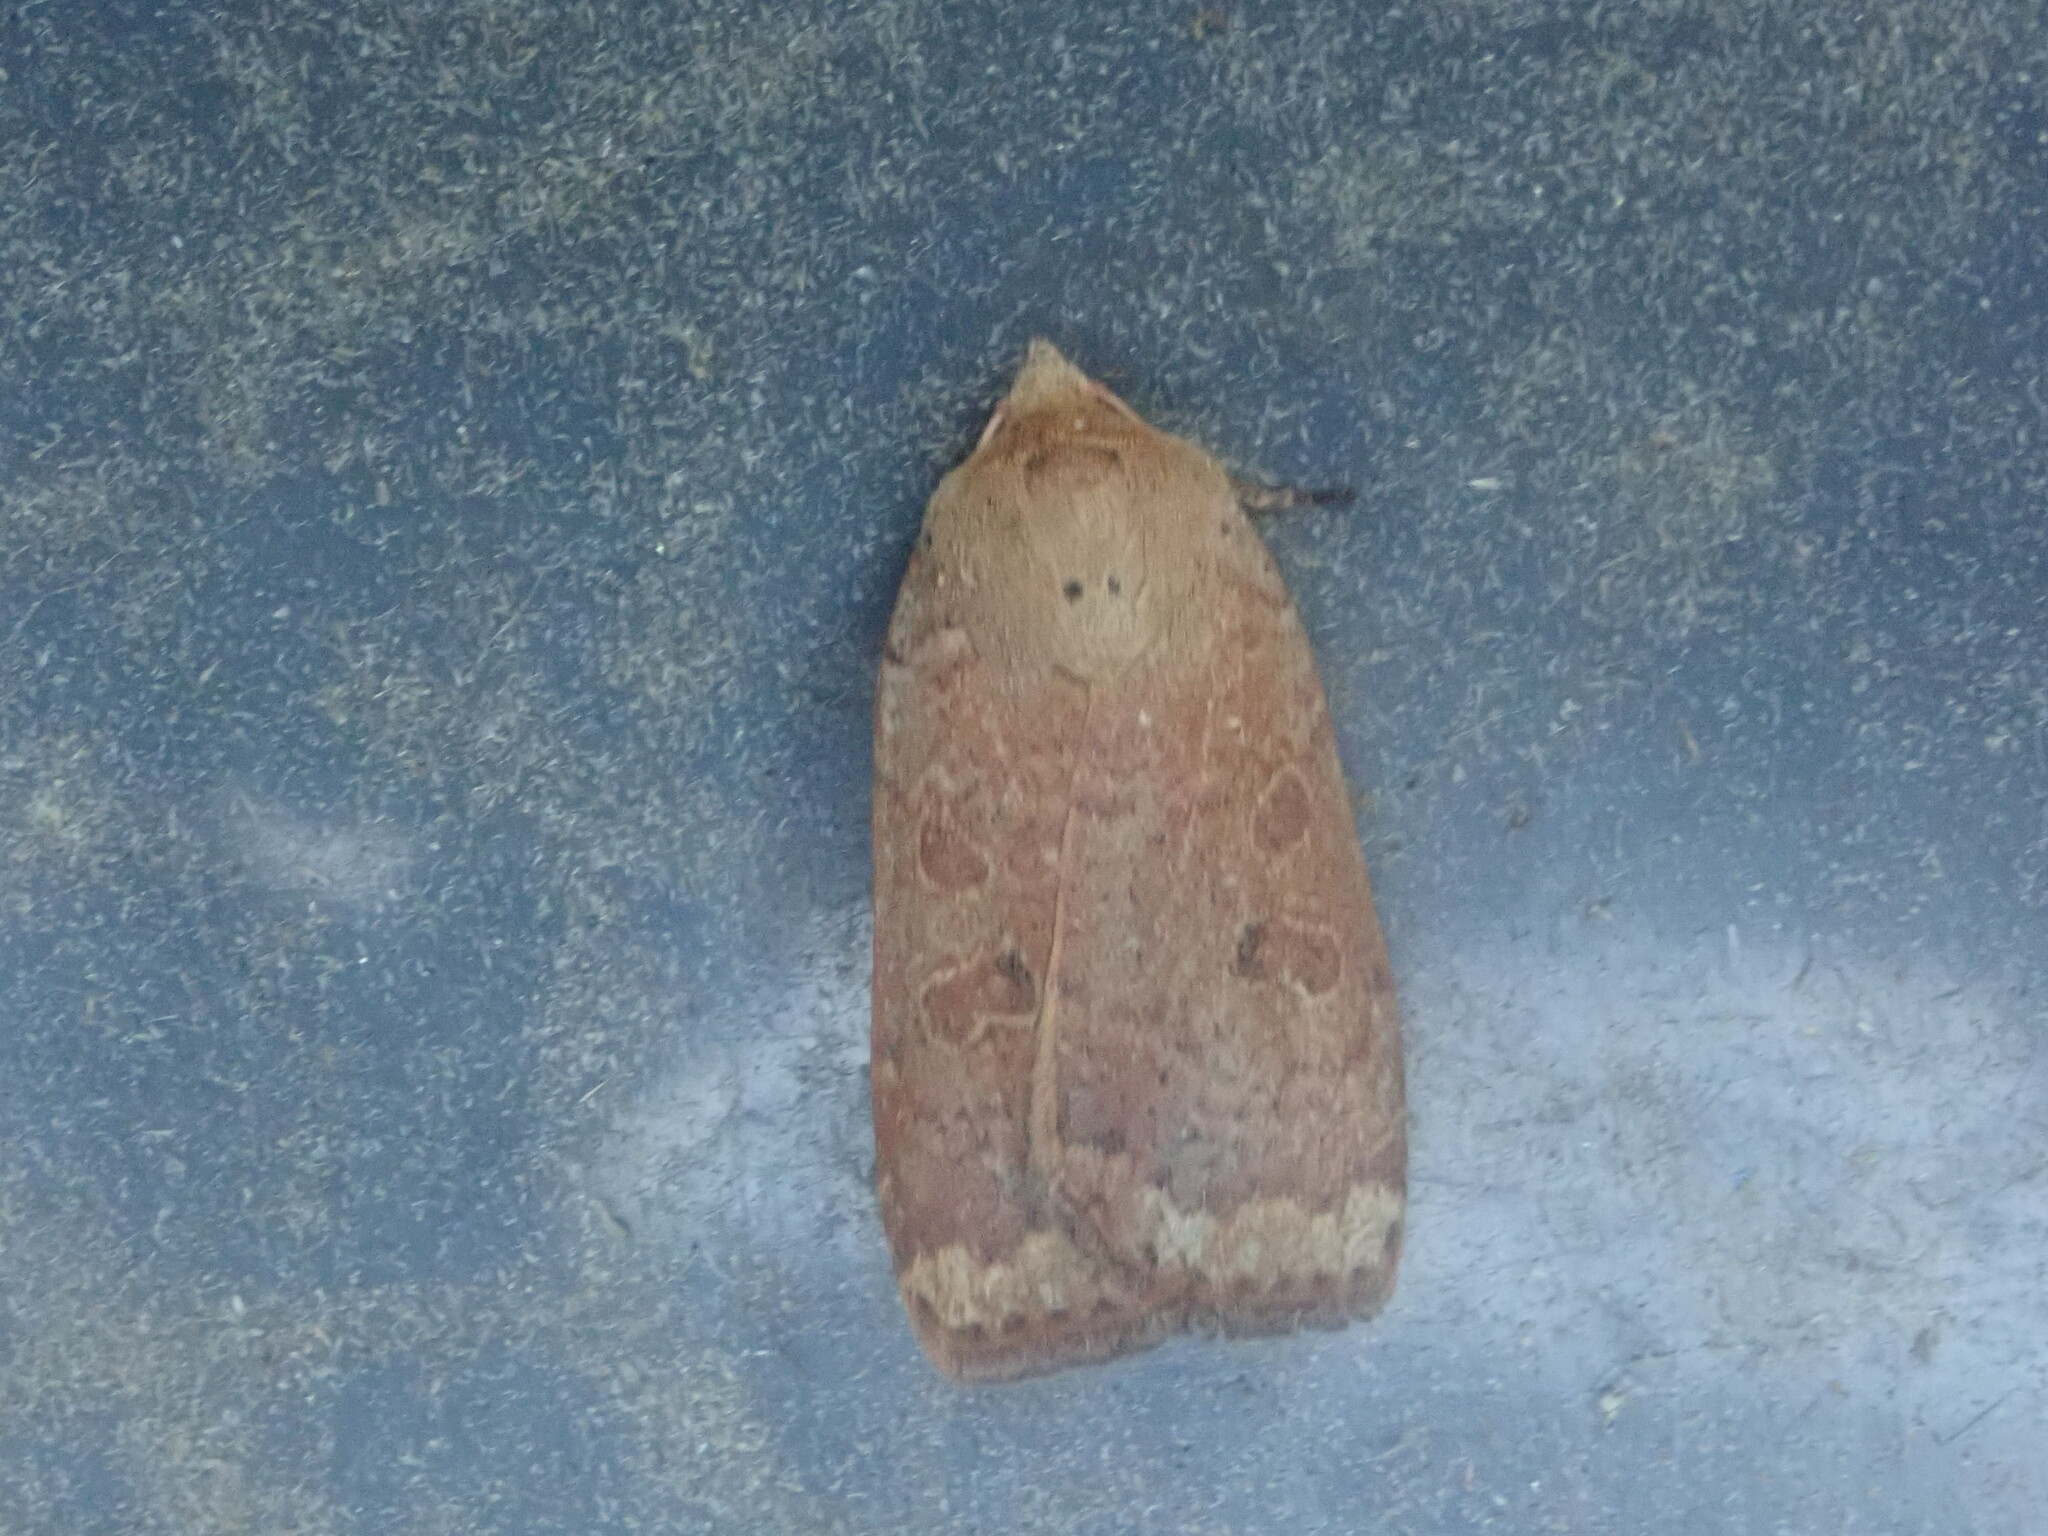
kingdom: Animalia
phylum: Arthropoda
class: Insecta
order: Lepidoptera
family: Noctuidae
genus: Abagrotis
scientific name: Abagrotis alternata
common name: Greater red dart
